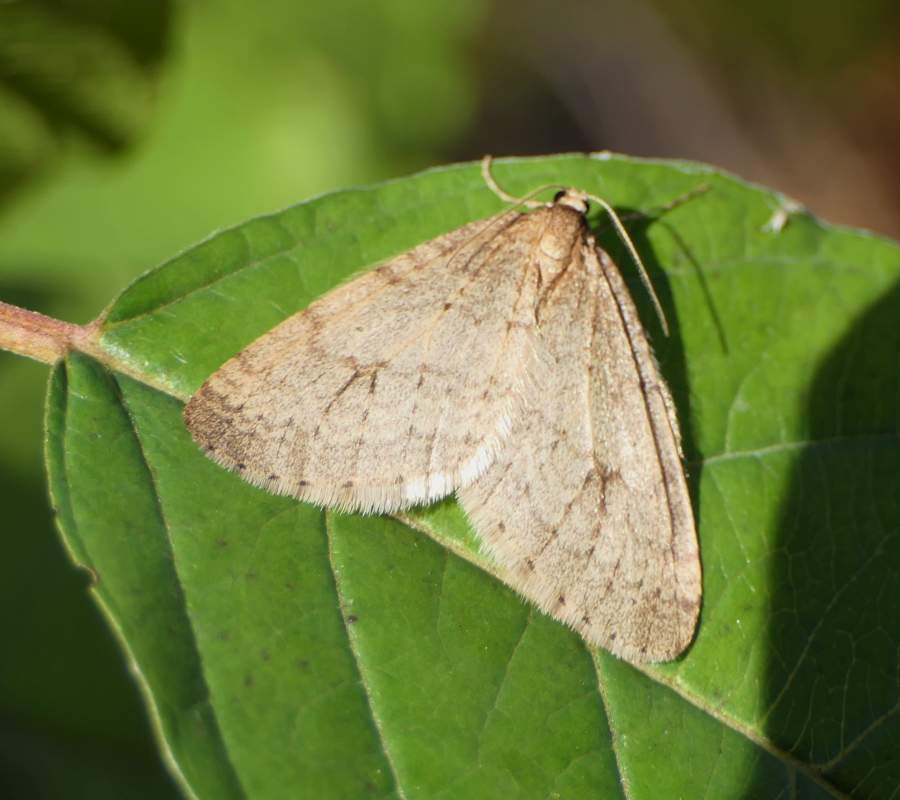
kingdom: Animalia
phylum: Arthropoda
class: Insecta
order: Lepidoptera
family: Geometridae
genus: Operophtera
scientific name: Operophtera bruceata
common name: Bruce spanworm
